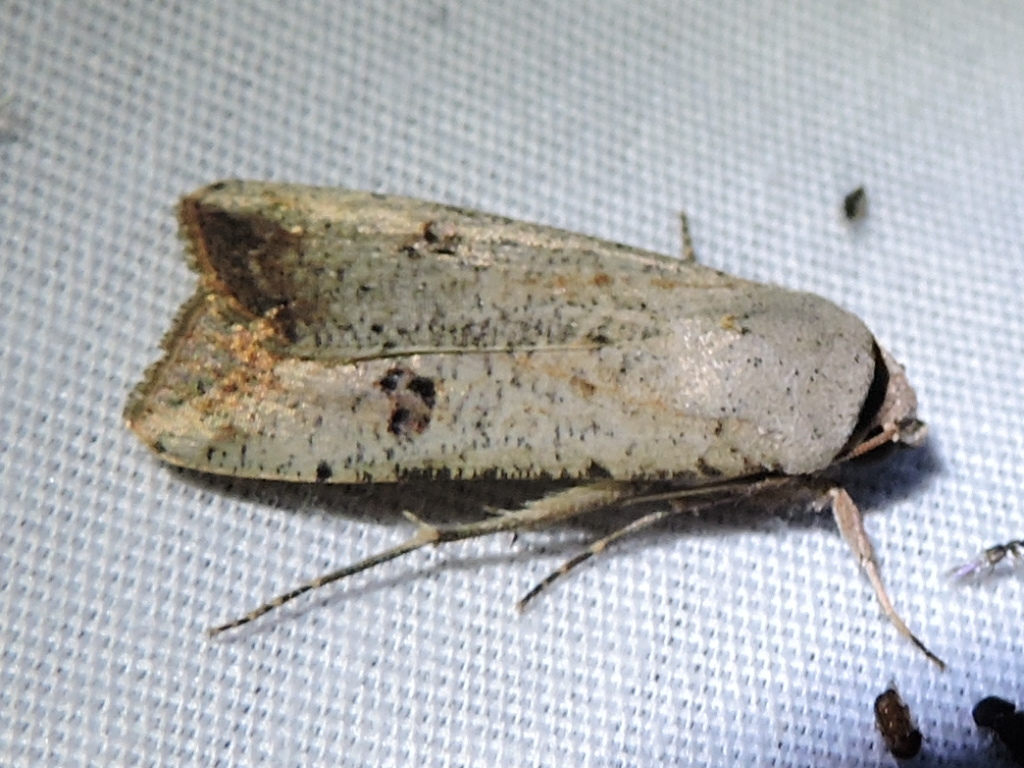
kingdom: Animalia
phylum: Arthropoda
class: Insecta
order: Lepidoptera
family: Noctuidae
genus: Anicla
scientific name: Anicla infecta
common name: Green cutworm
